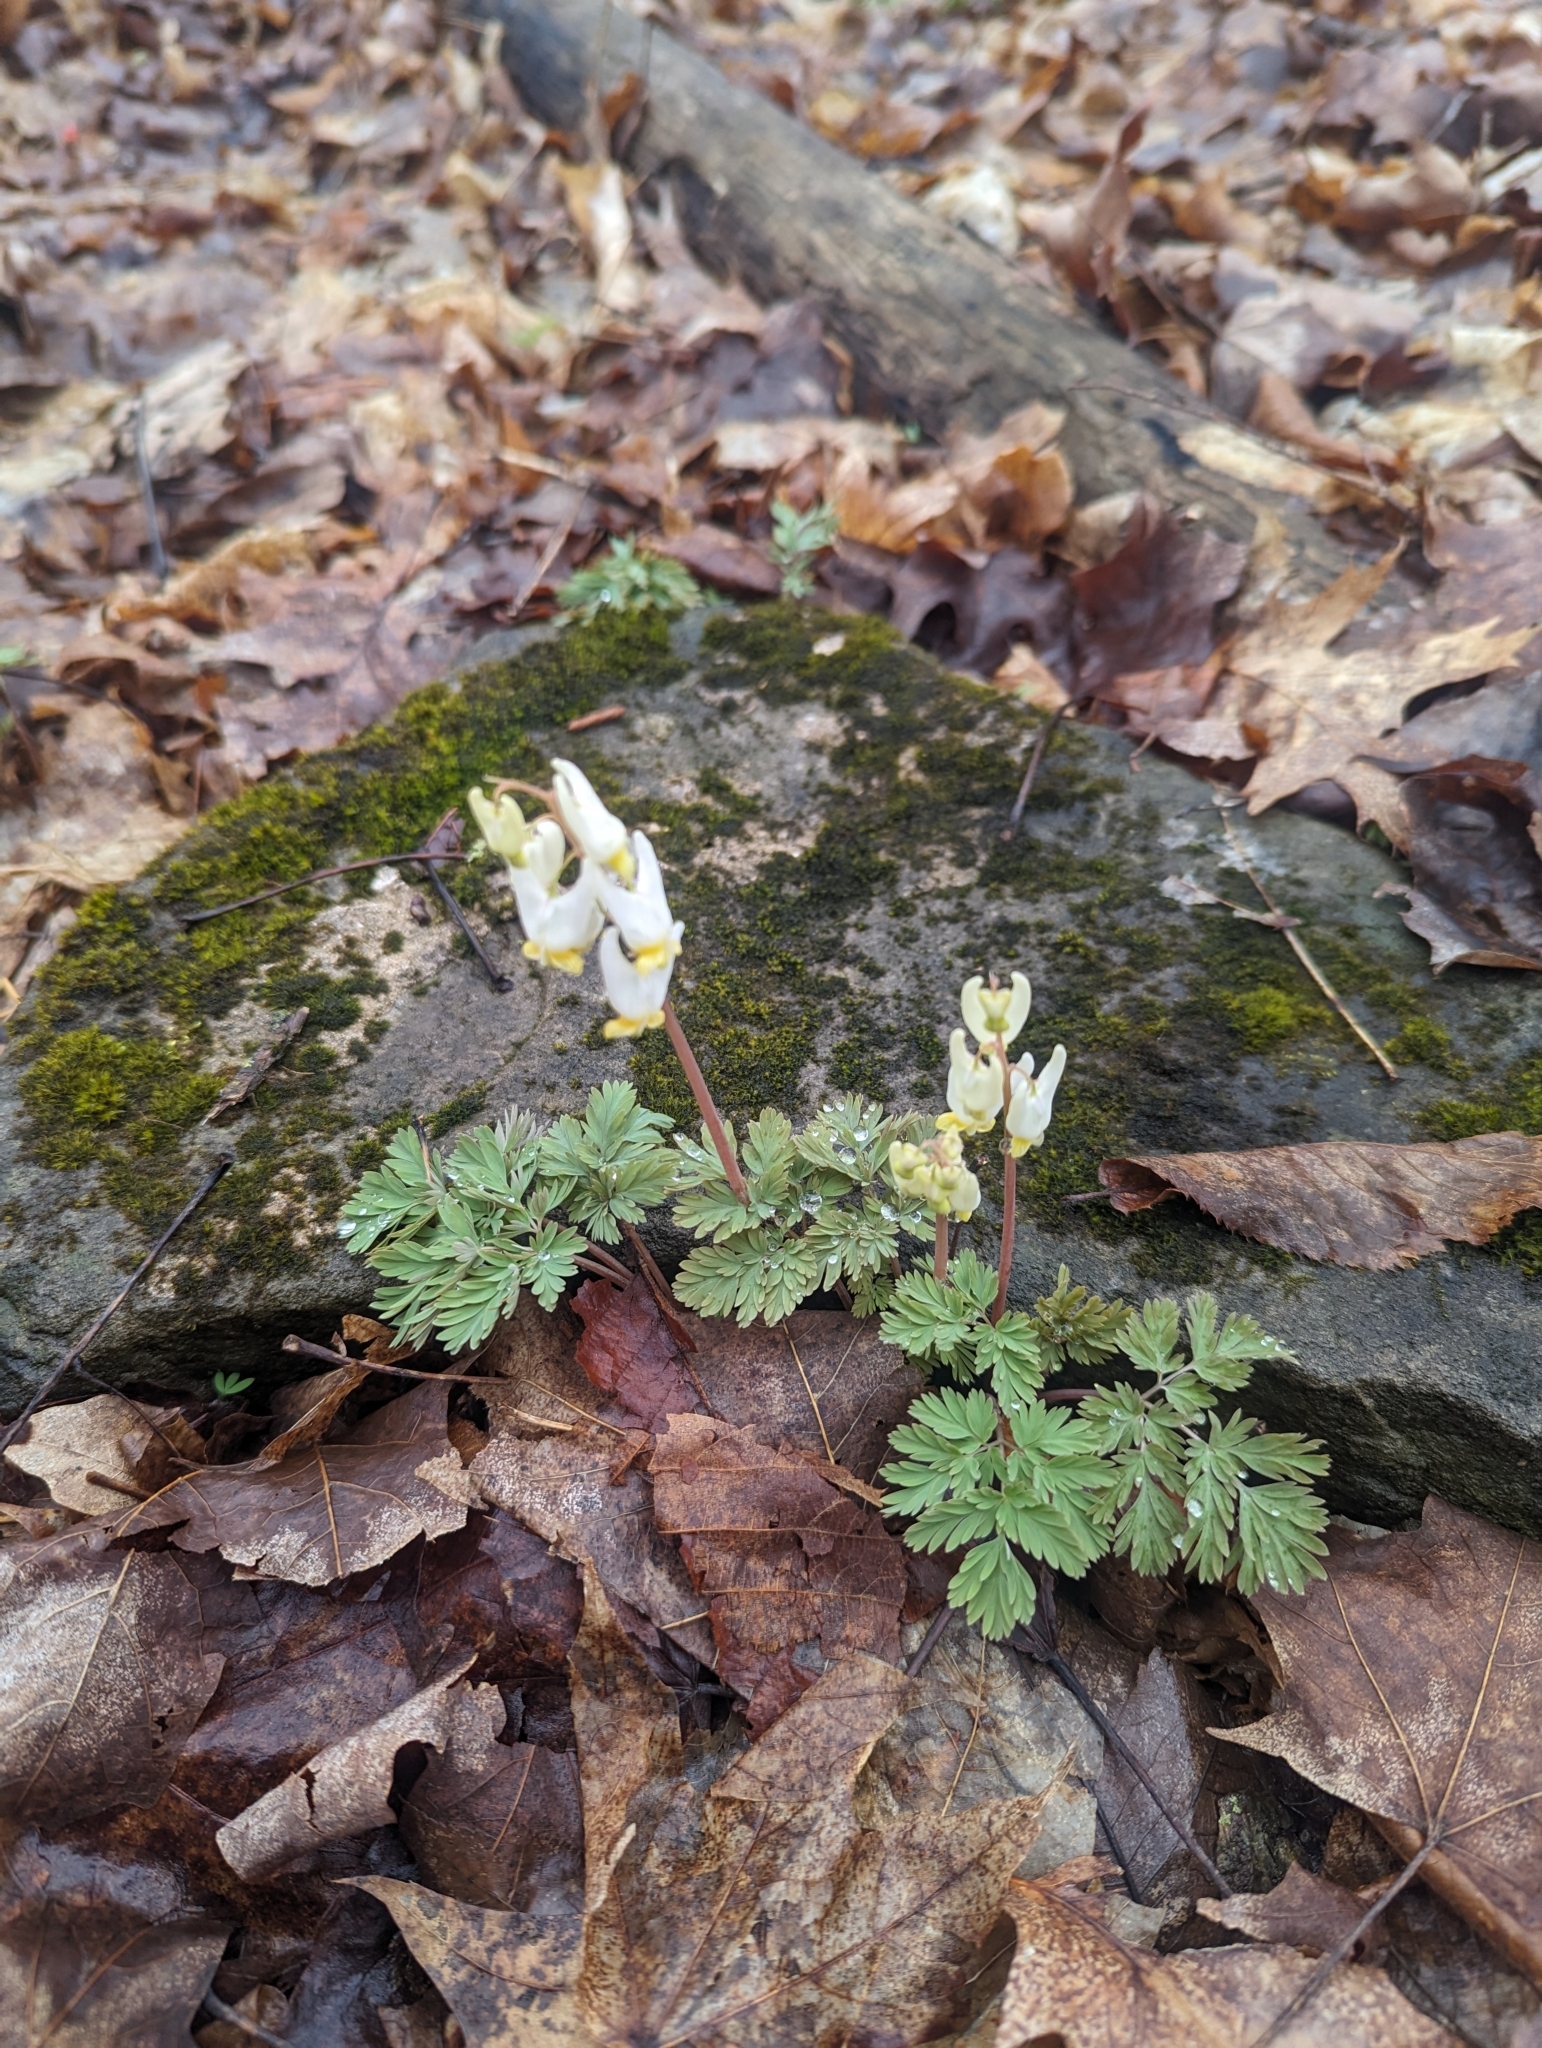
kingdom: Plantae
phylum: Tracheophyta
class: Magnoliopsida
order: Ranunculales
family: Papaveraceae
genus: Dicentra
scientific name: Dicentra cucullaria
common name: Dutchman's breeches
